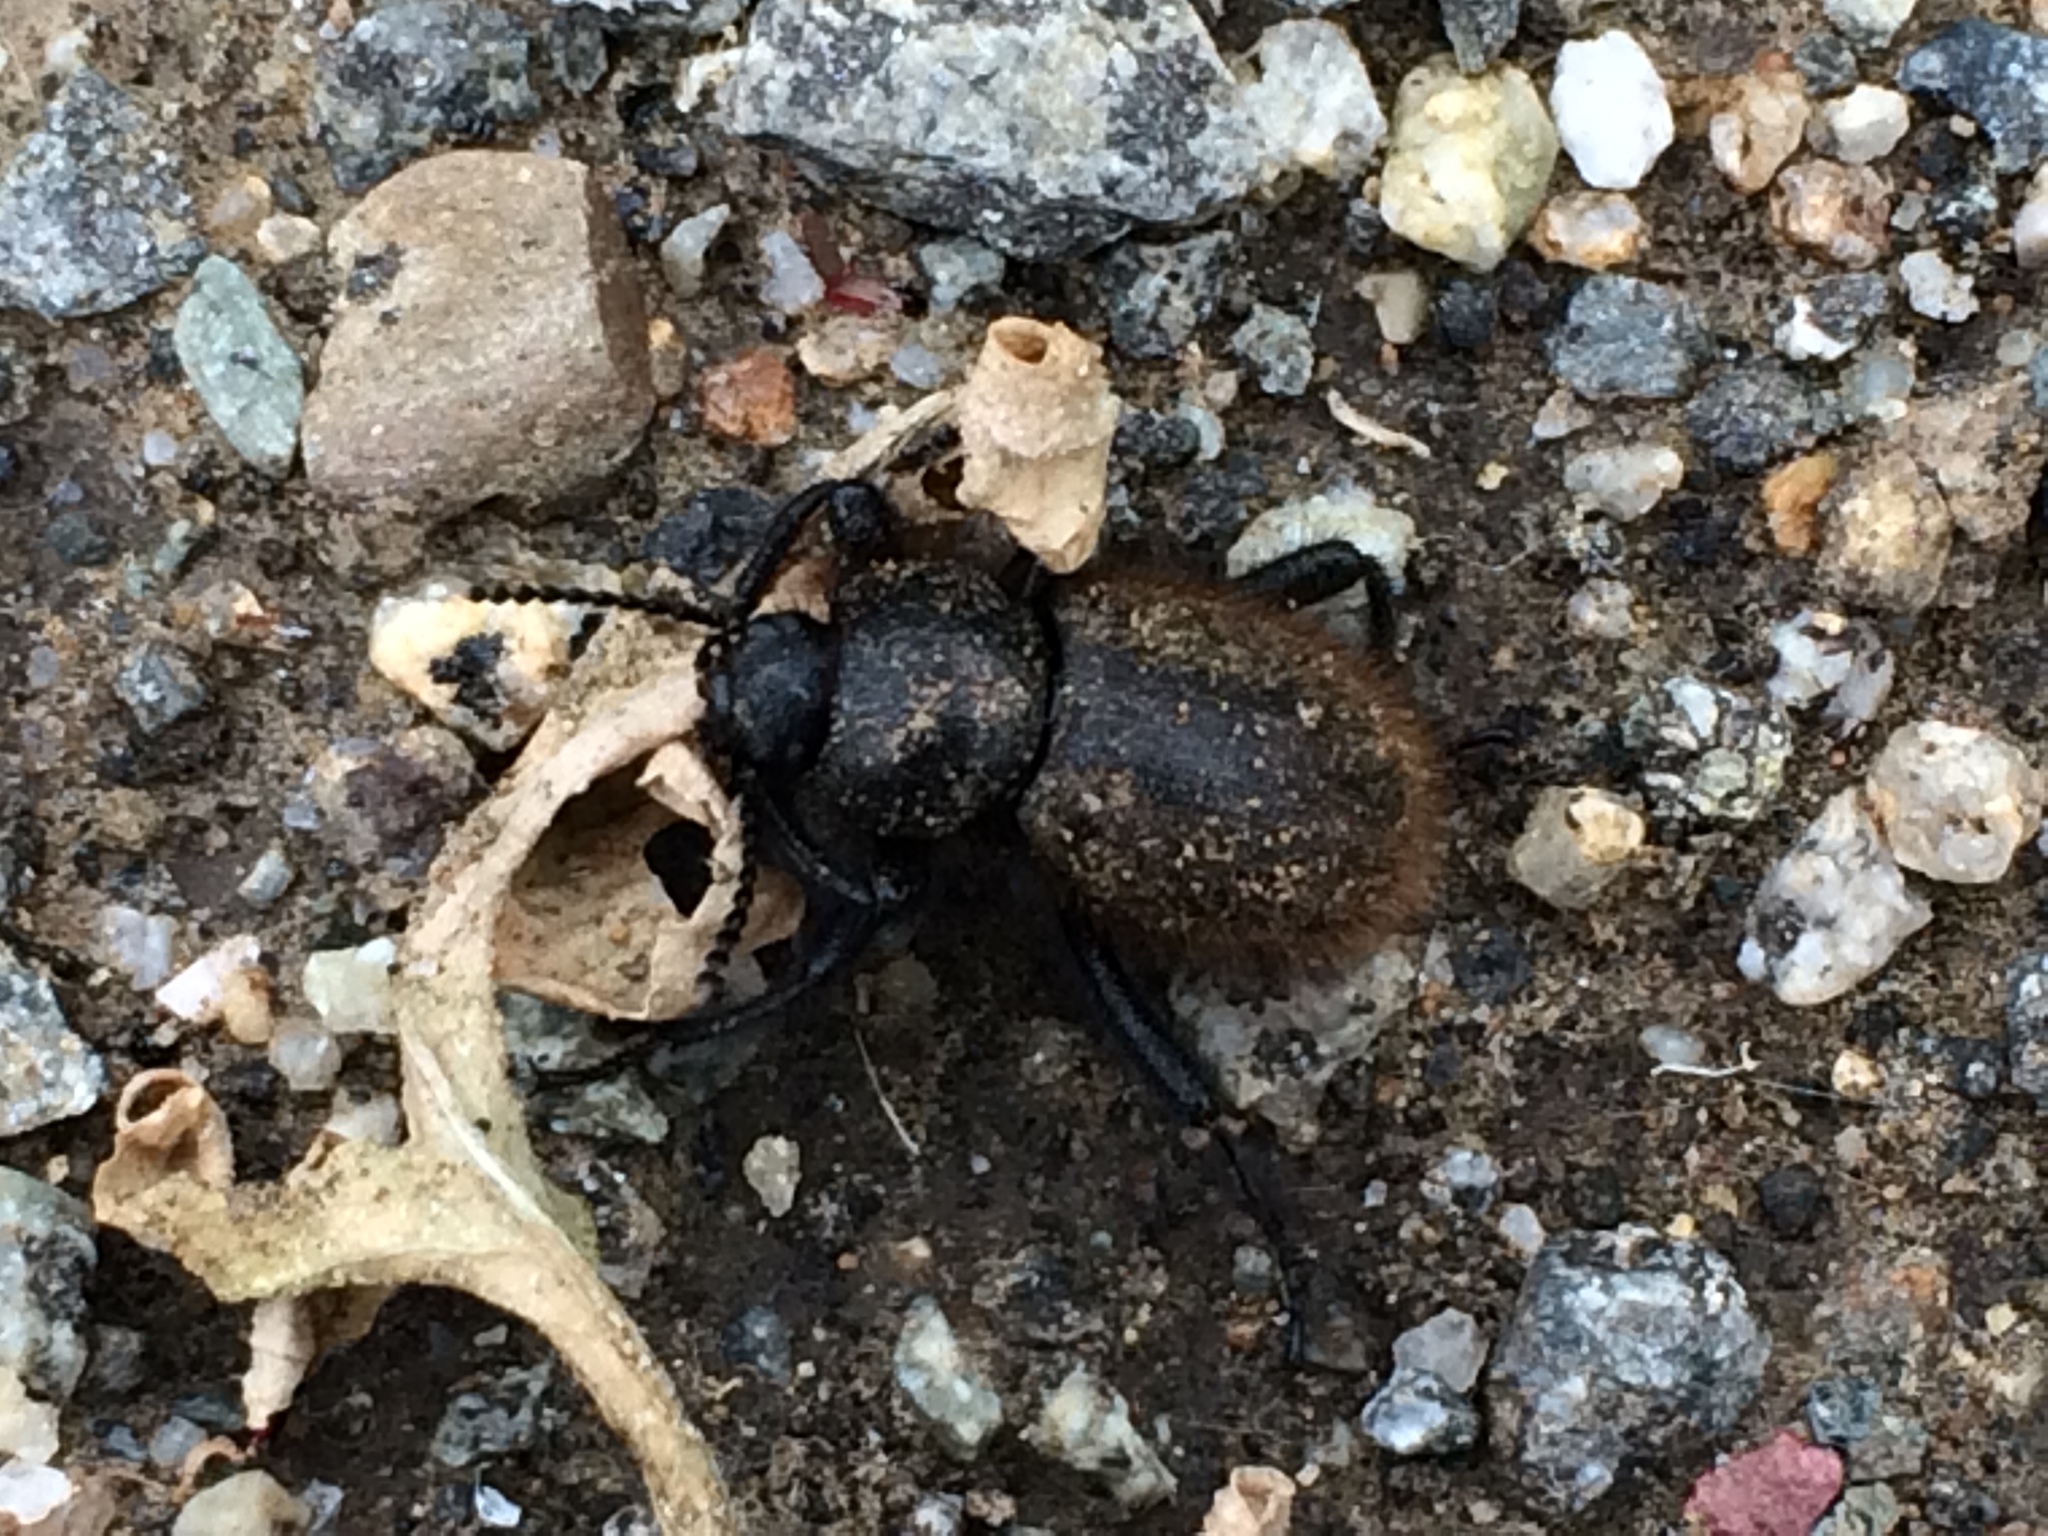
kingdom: Animalia
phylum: Arthropoda
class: Insecta
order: Coleoptera
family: Tenebrionidae
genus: Eleodes
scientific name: Eleodes osculans
